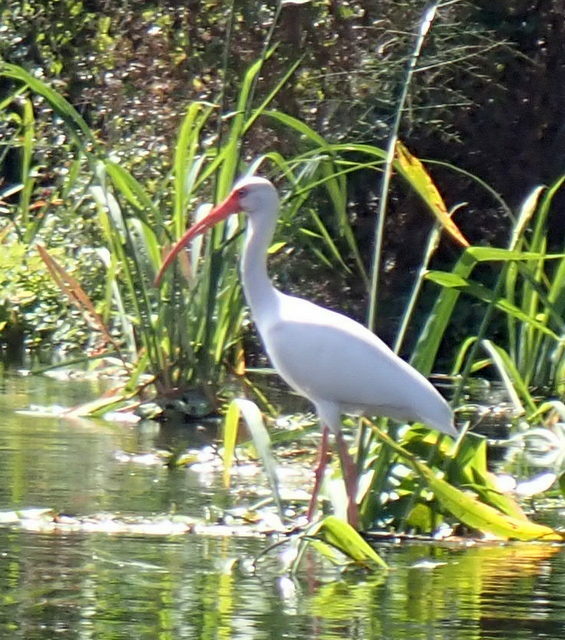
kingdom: Animalia
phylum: Chordata
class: Aves
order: Pelecaniformes
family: Threskiornithidae
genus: Eudocimus
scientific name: Eudocimus albus
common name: White ibis
